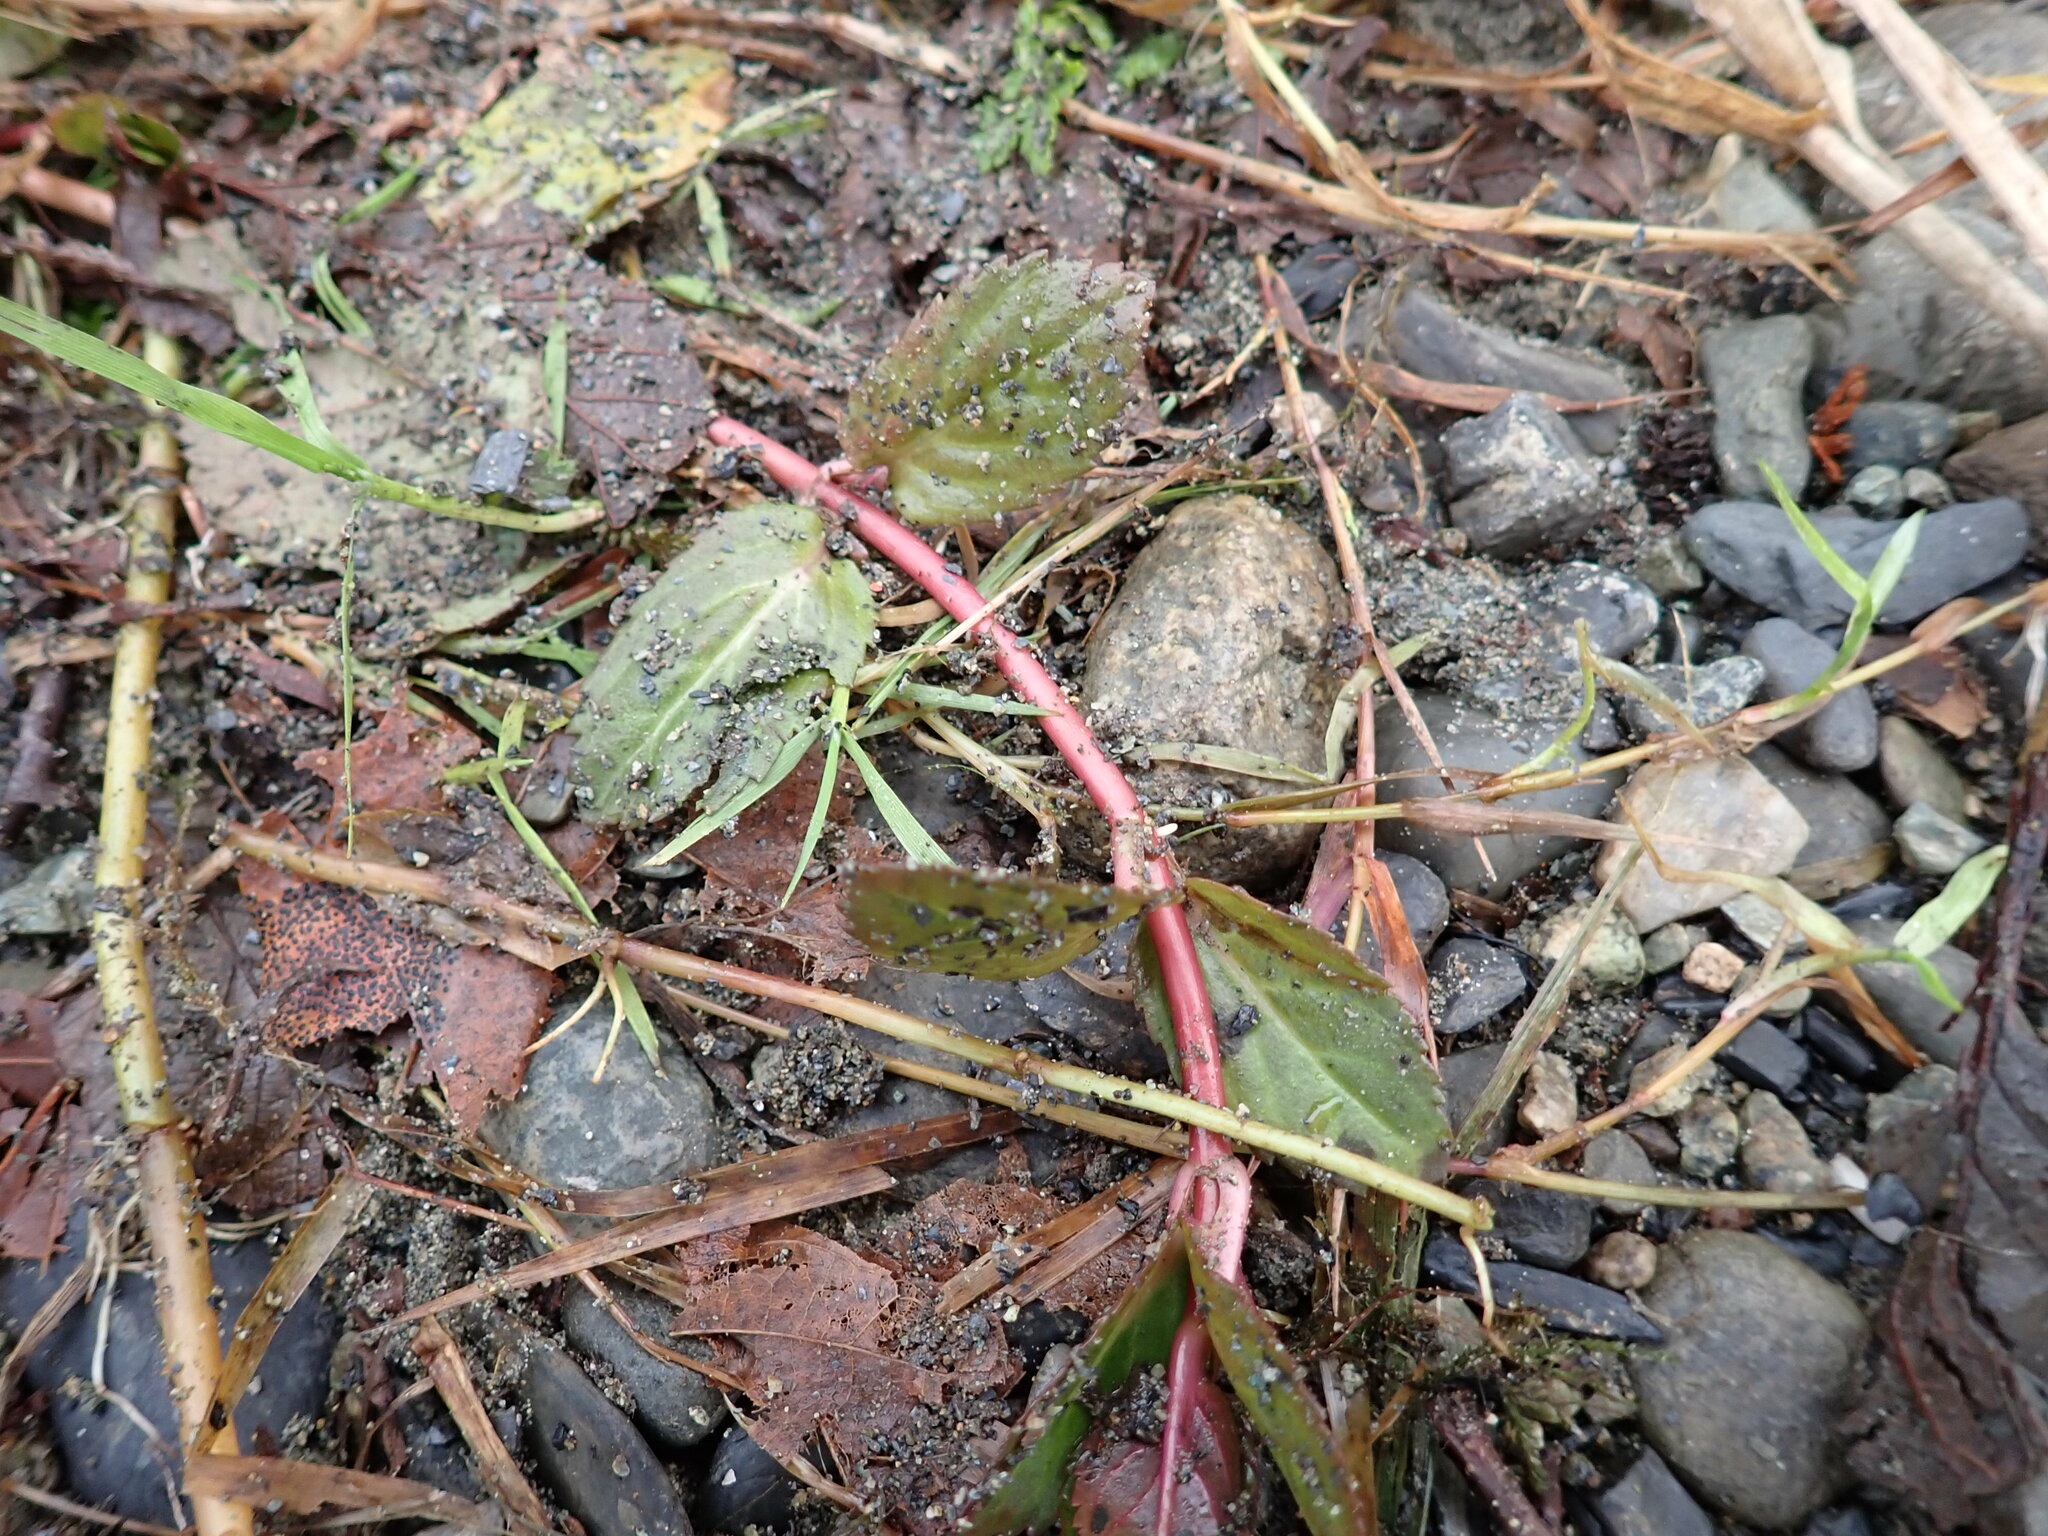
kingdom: Plantae
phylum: Tracheophyta
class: Magnoliopsida
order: Lamiales
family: Plantaginaceae
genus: Veronica
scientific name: Veronica americana
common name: American brooklime
